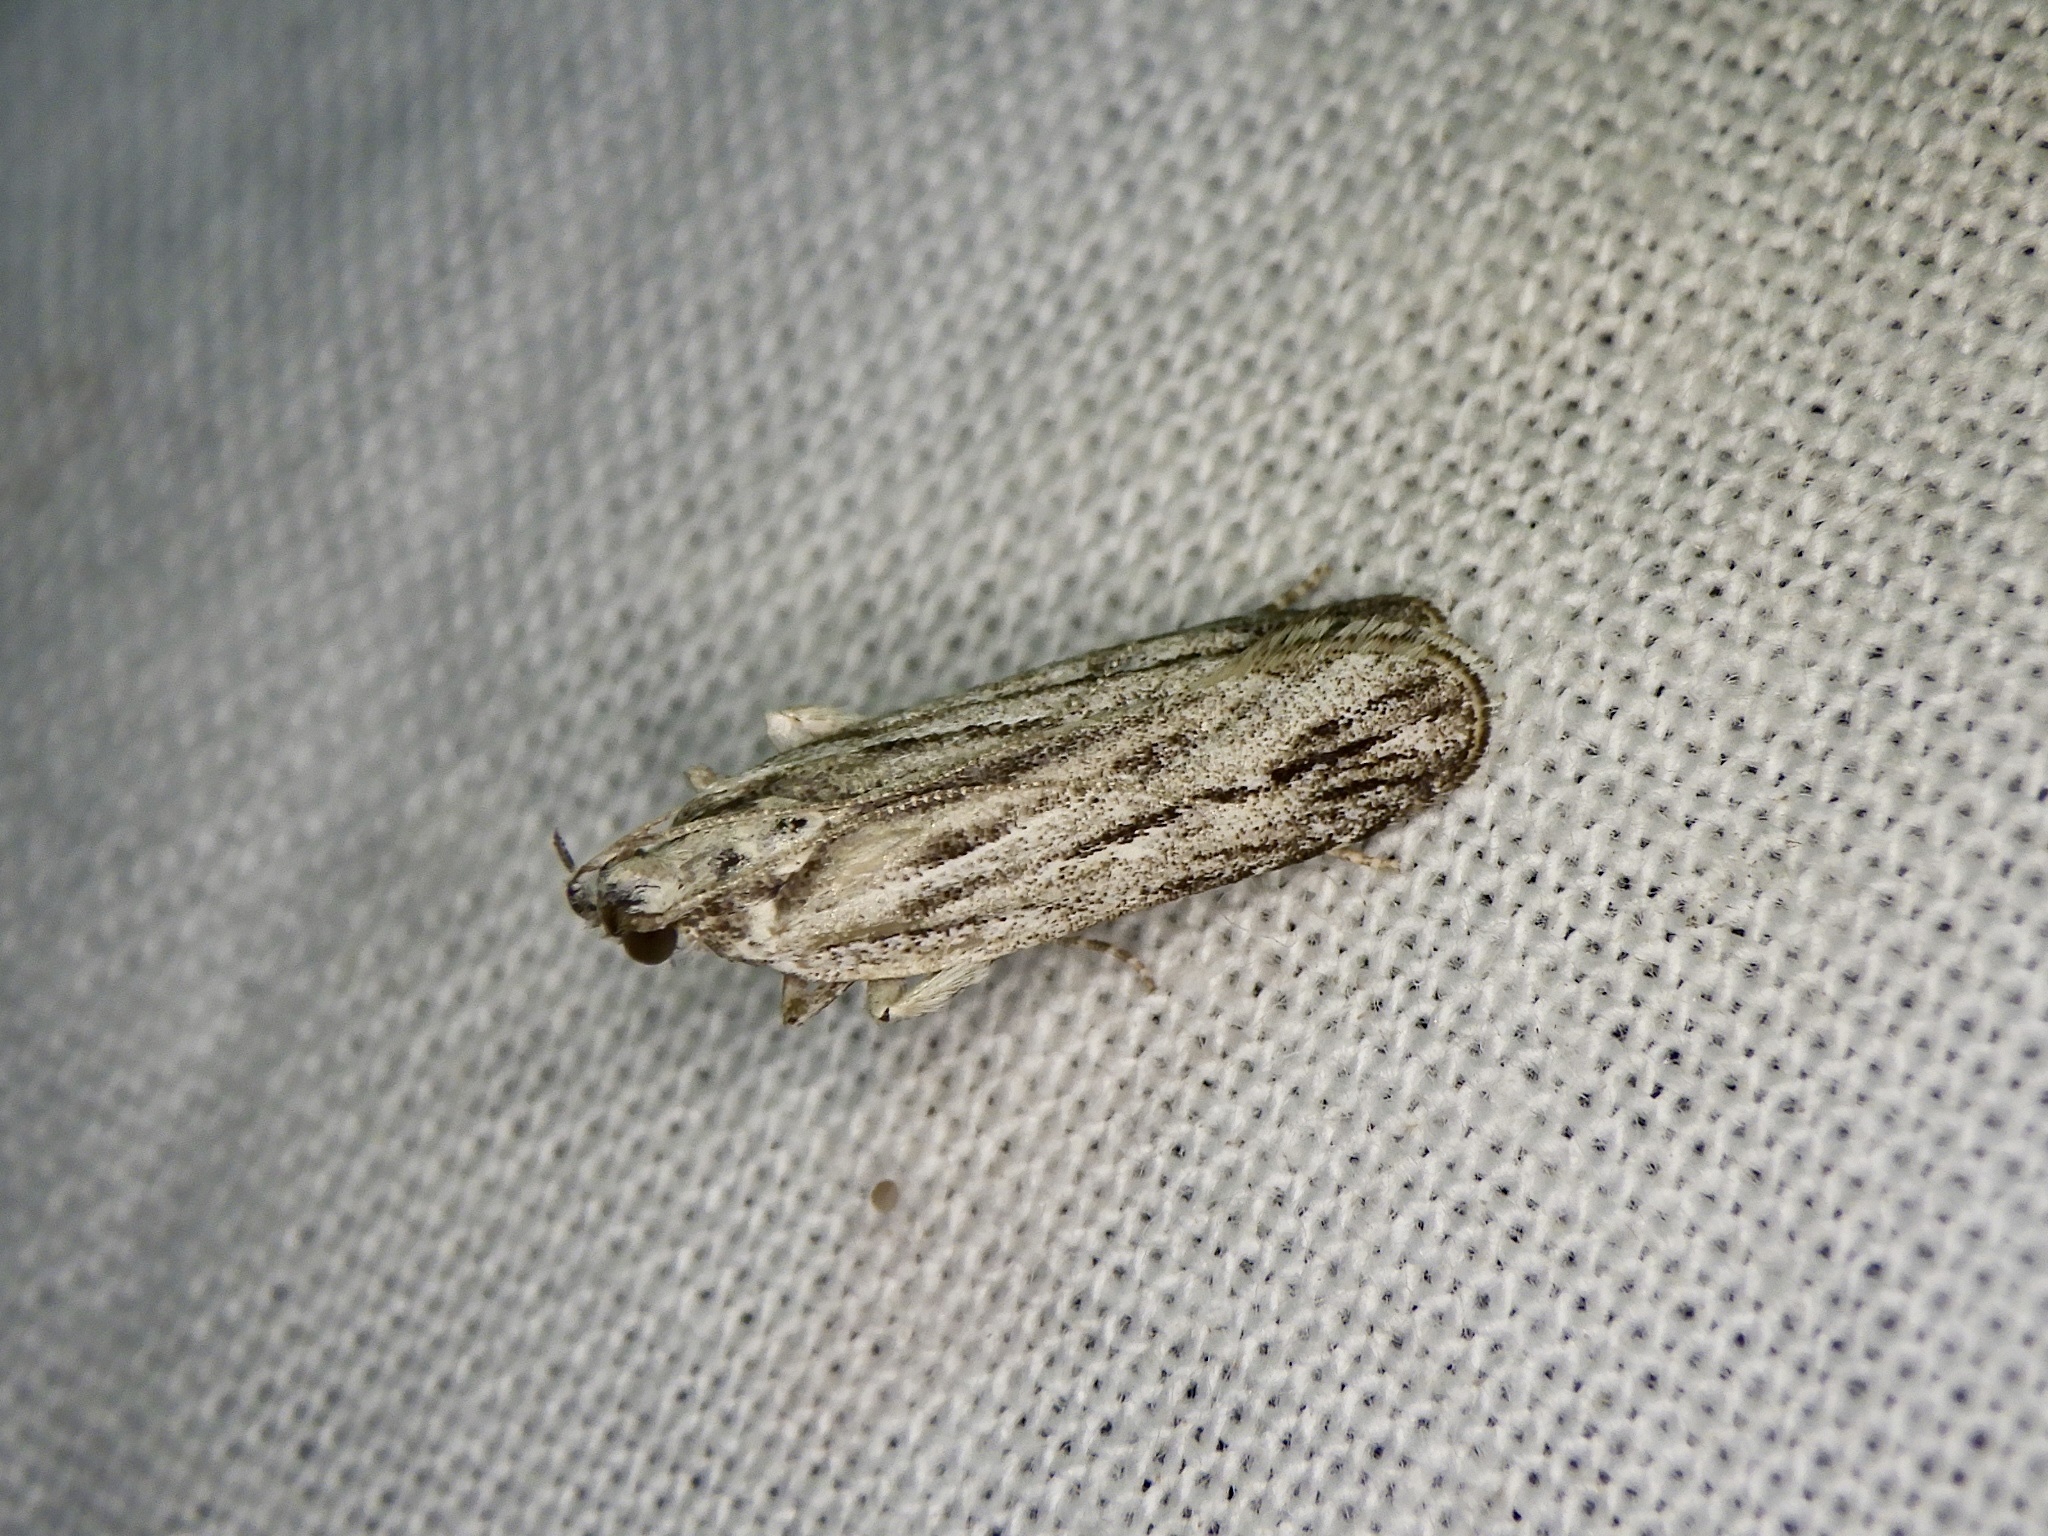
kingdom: Animalia
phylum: Arthropoda
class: Insecta
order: Lepidoptera
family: Gelechiidae
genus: Tornodoxa
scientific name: Tornodoxa tholochorda
